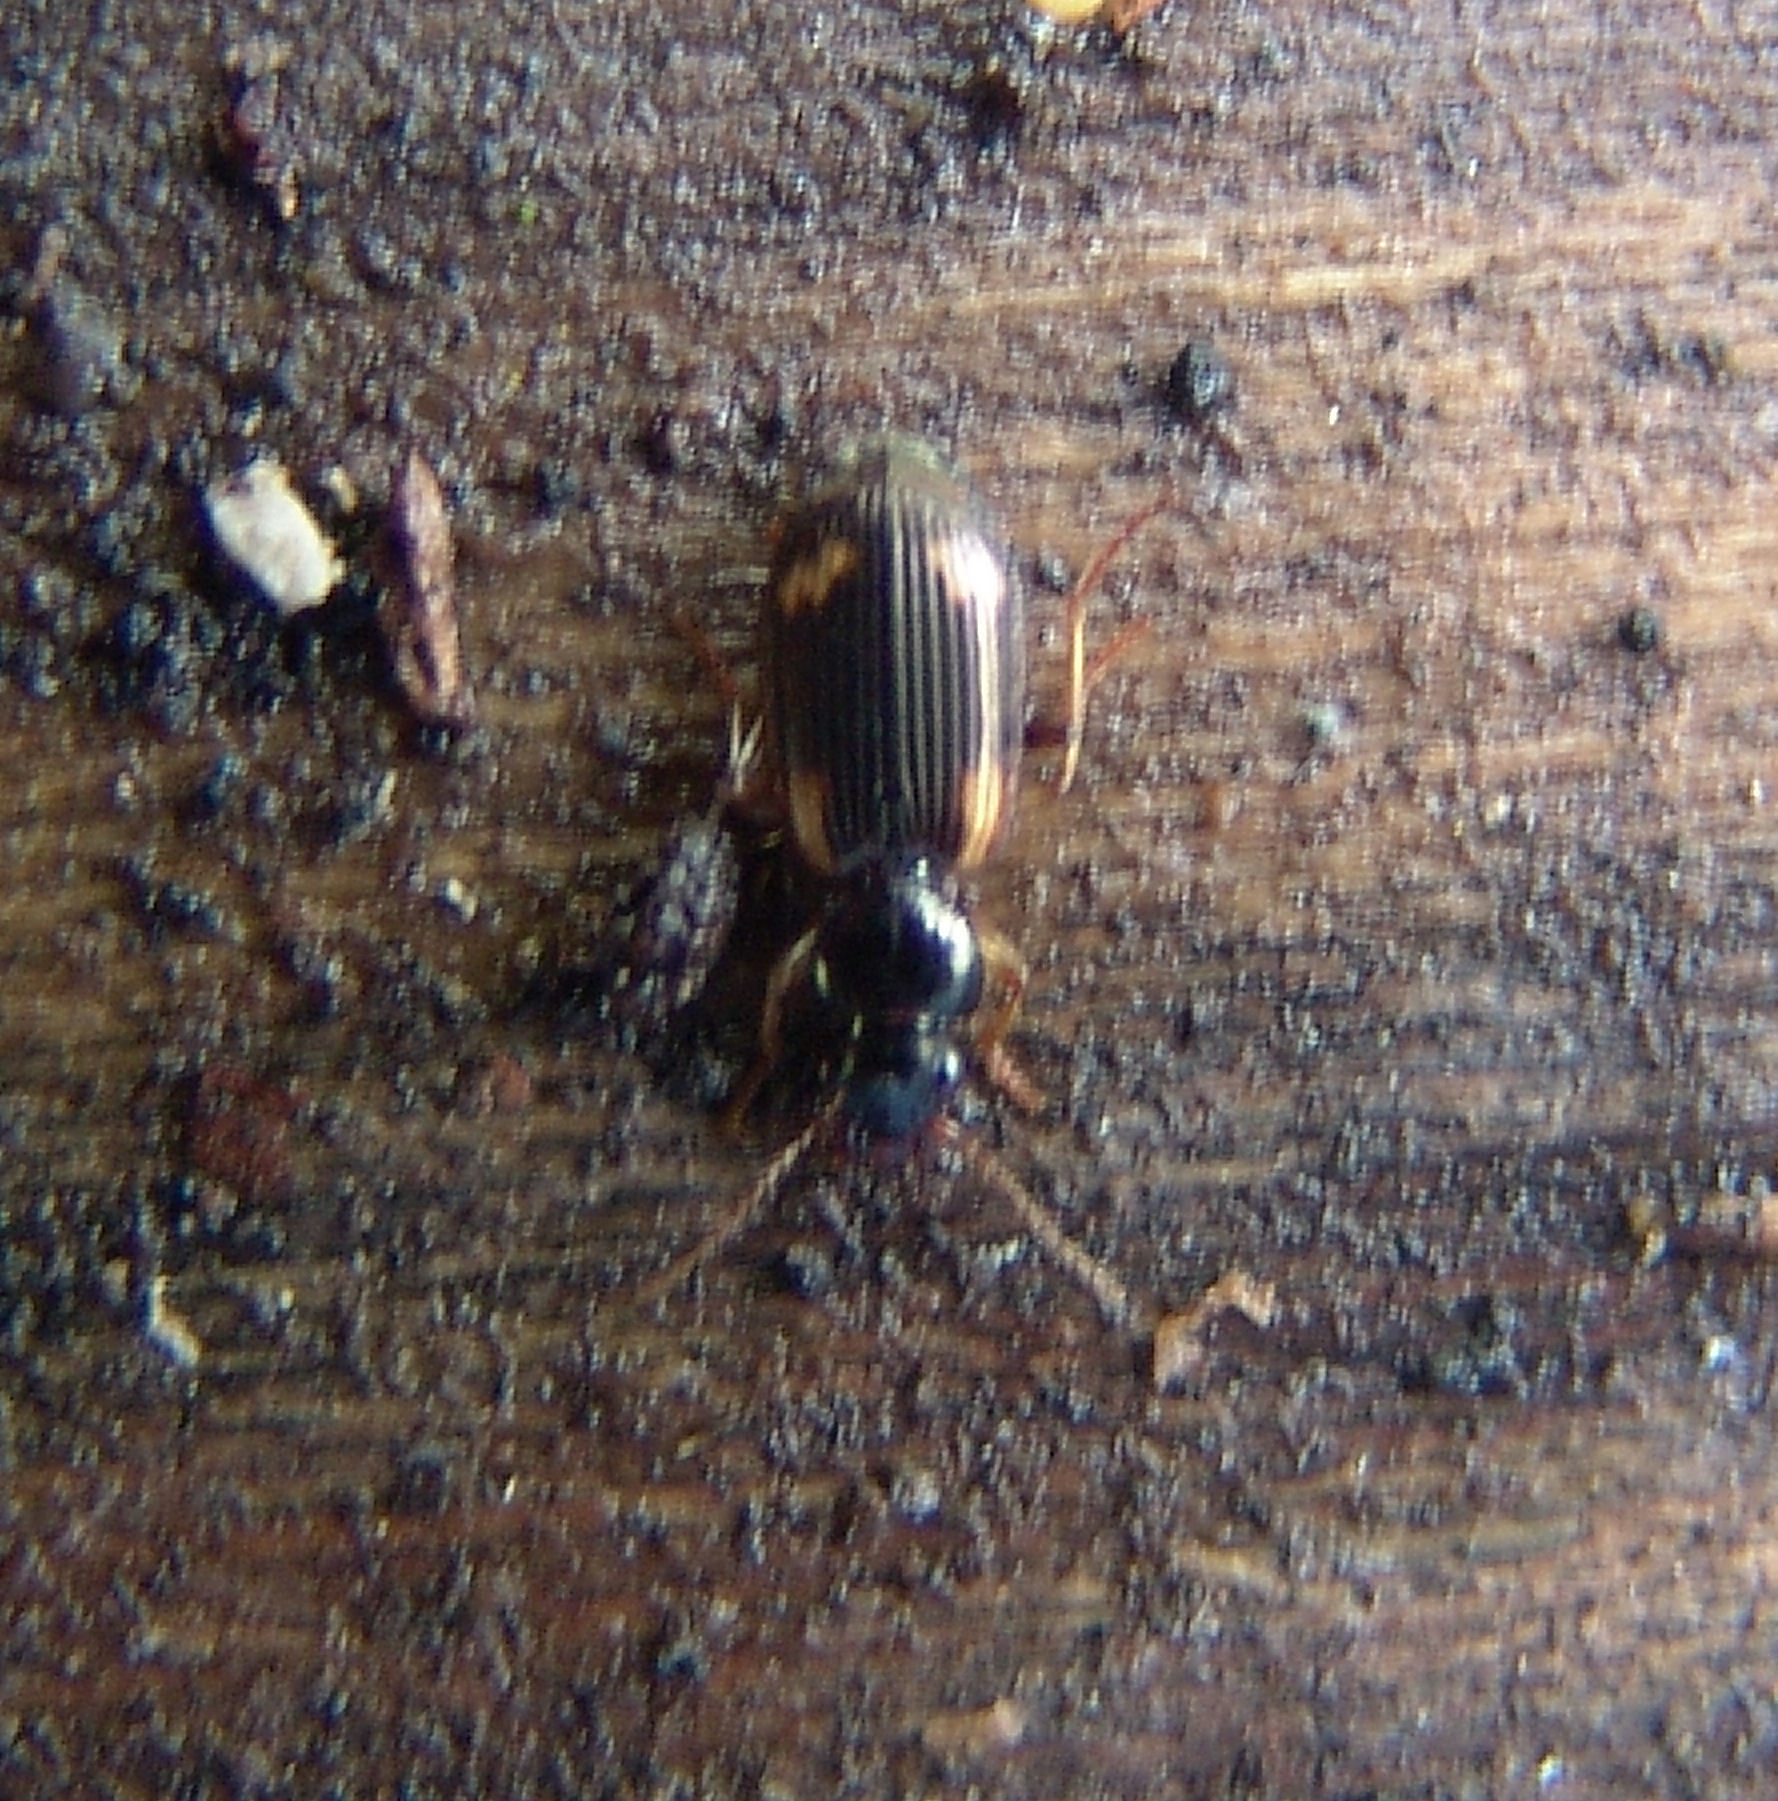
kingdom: Animalia
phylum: Arthropoda
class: Insecta
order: Coleoptera
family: Carabidae
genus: Apenes
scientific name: Apenes sinuata
